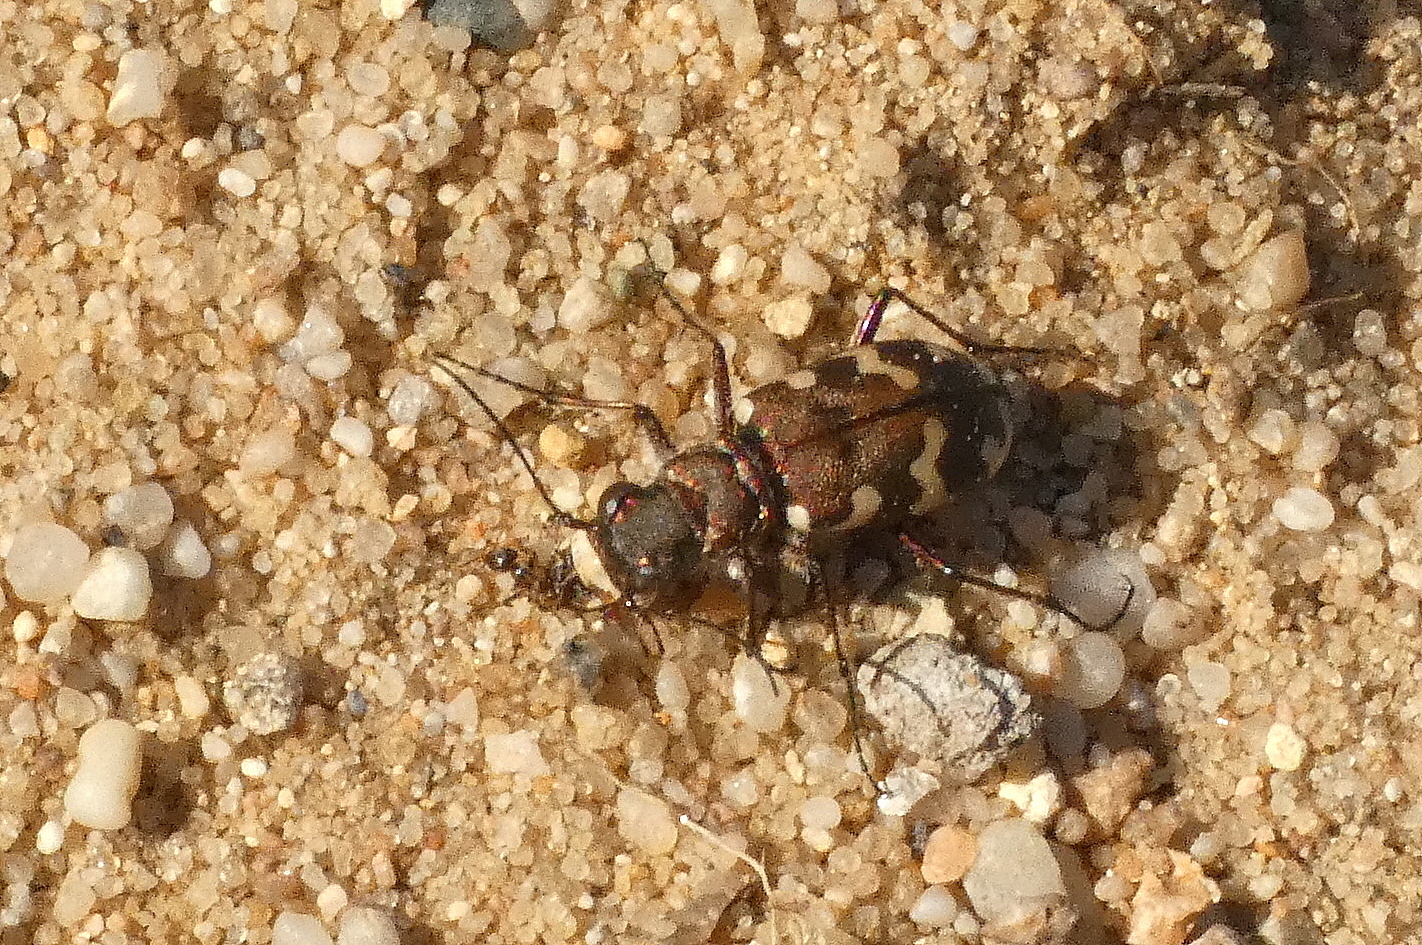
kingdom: Animalia
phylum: Arthropoda
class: Insecta
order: Coleoptera
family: Carabidae
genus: Cicindela
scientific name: Cicindela hybrida
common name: Northern dune tiger beetle
